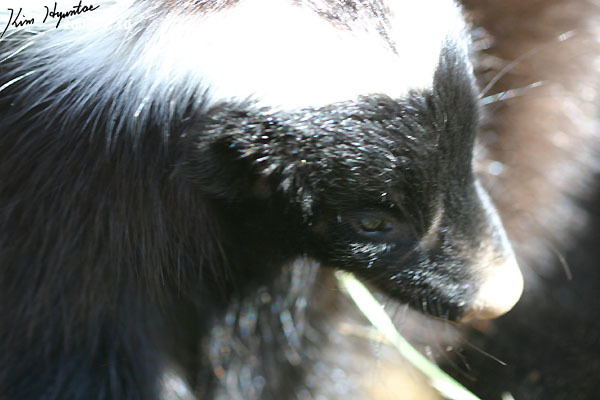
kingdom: Animalia
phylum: Chordata
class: Mammalia
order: Carnivora
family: Mephitidae
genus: Conepatus
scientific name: Conepatus chinga
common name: Molina's hog-nosed skunk
